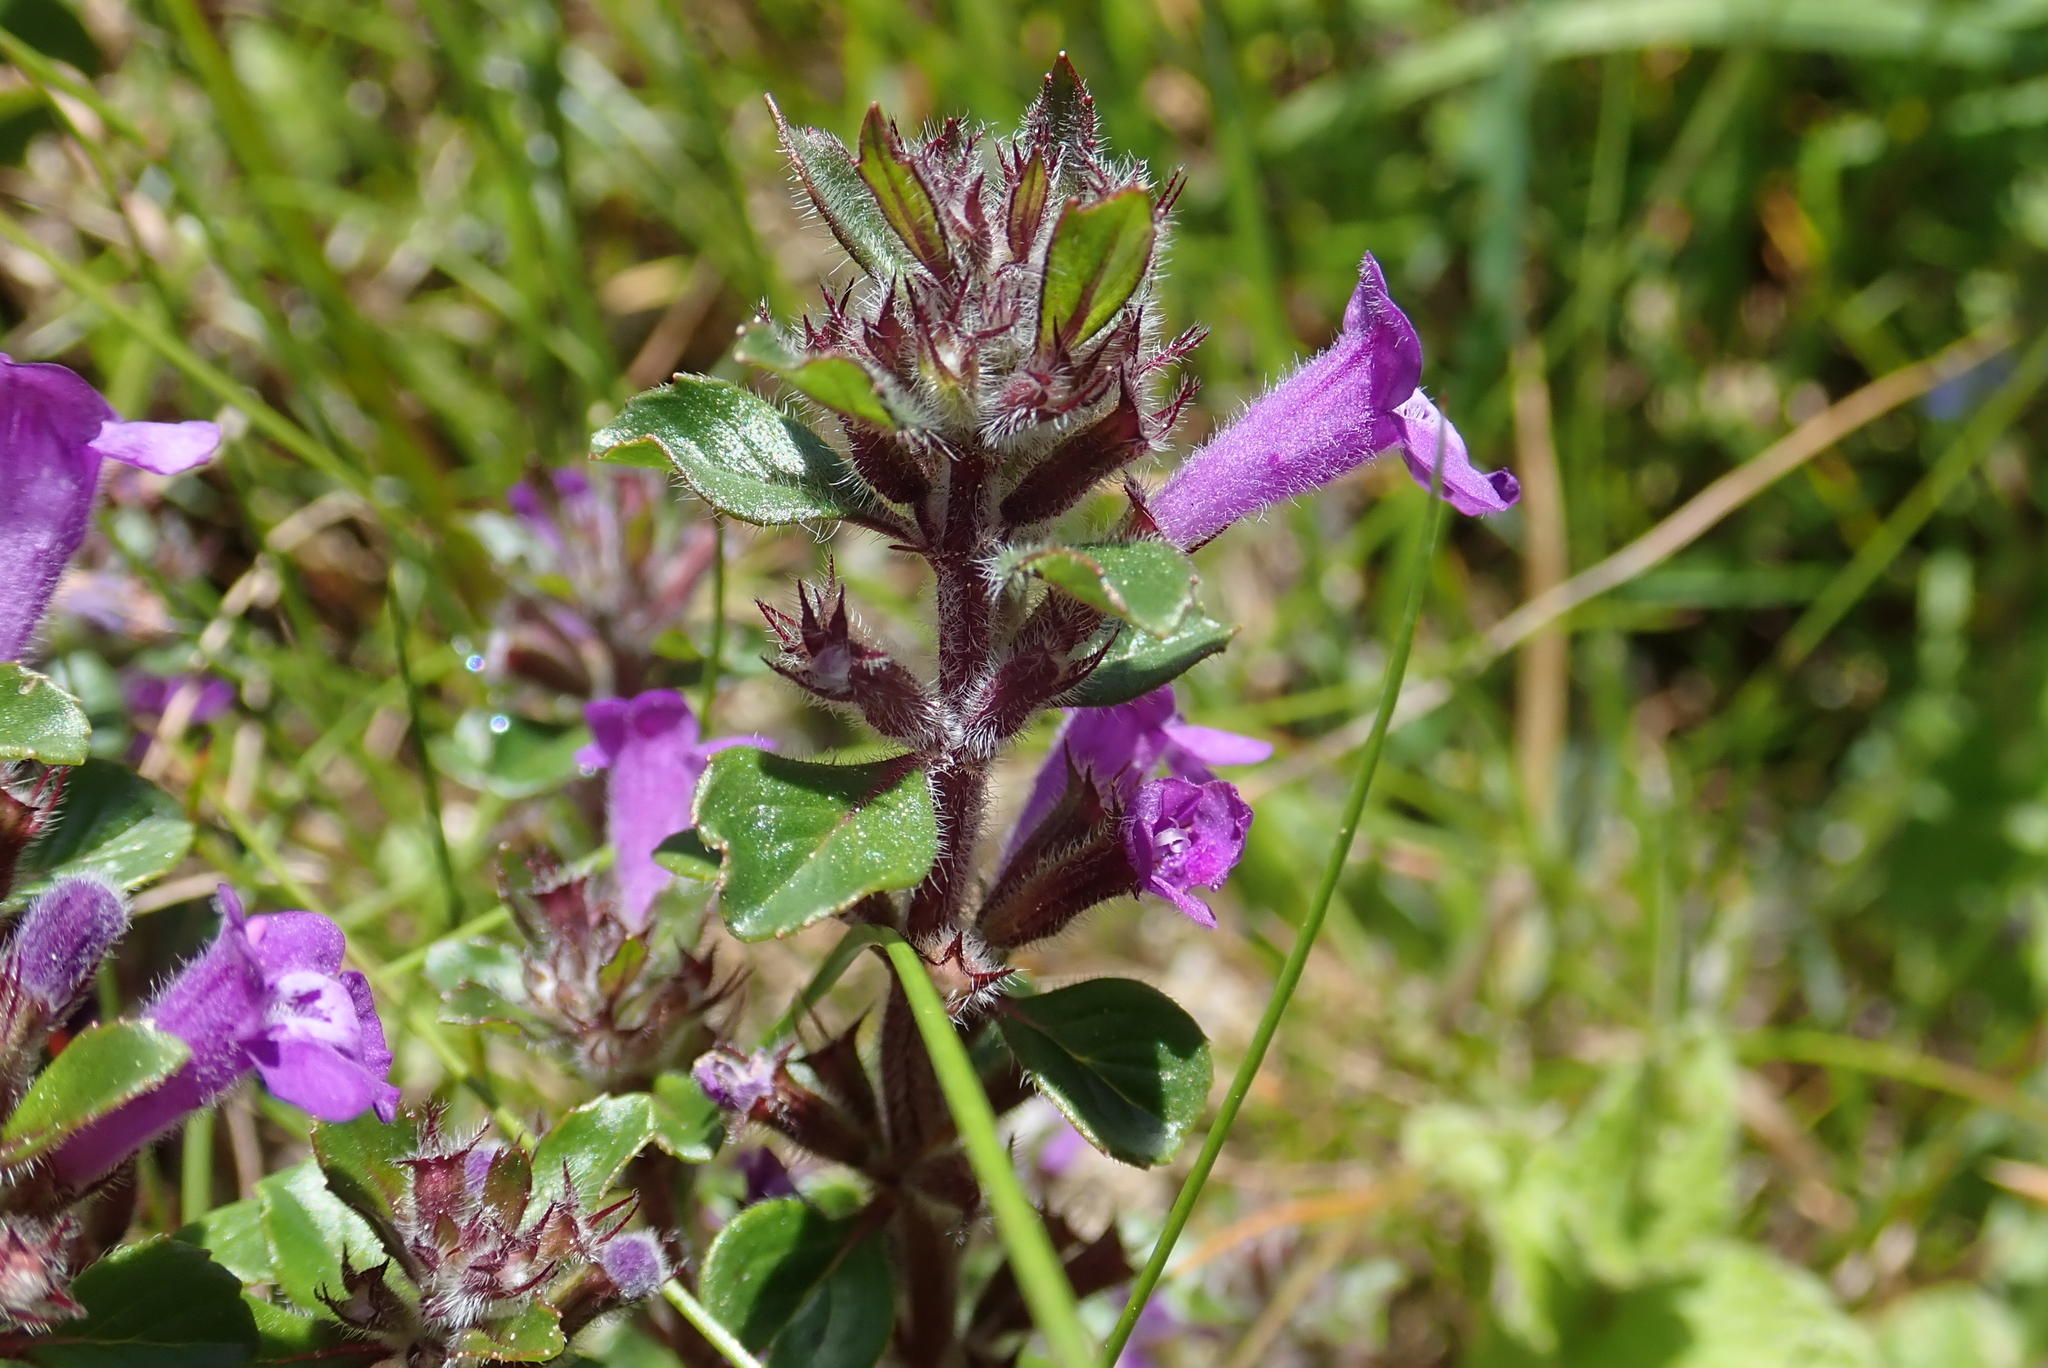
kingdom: Plantae
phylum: Tracheophyta
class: Magnoliopsida
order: Lamiales
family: Lamiaceae
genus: Clinopodium
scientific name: Clinopodium alpinum
